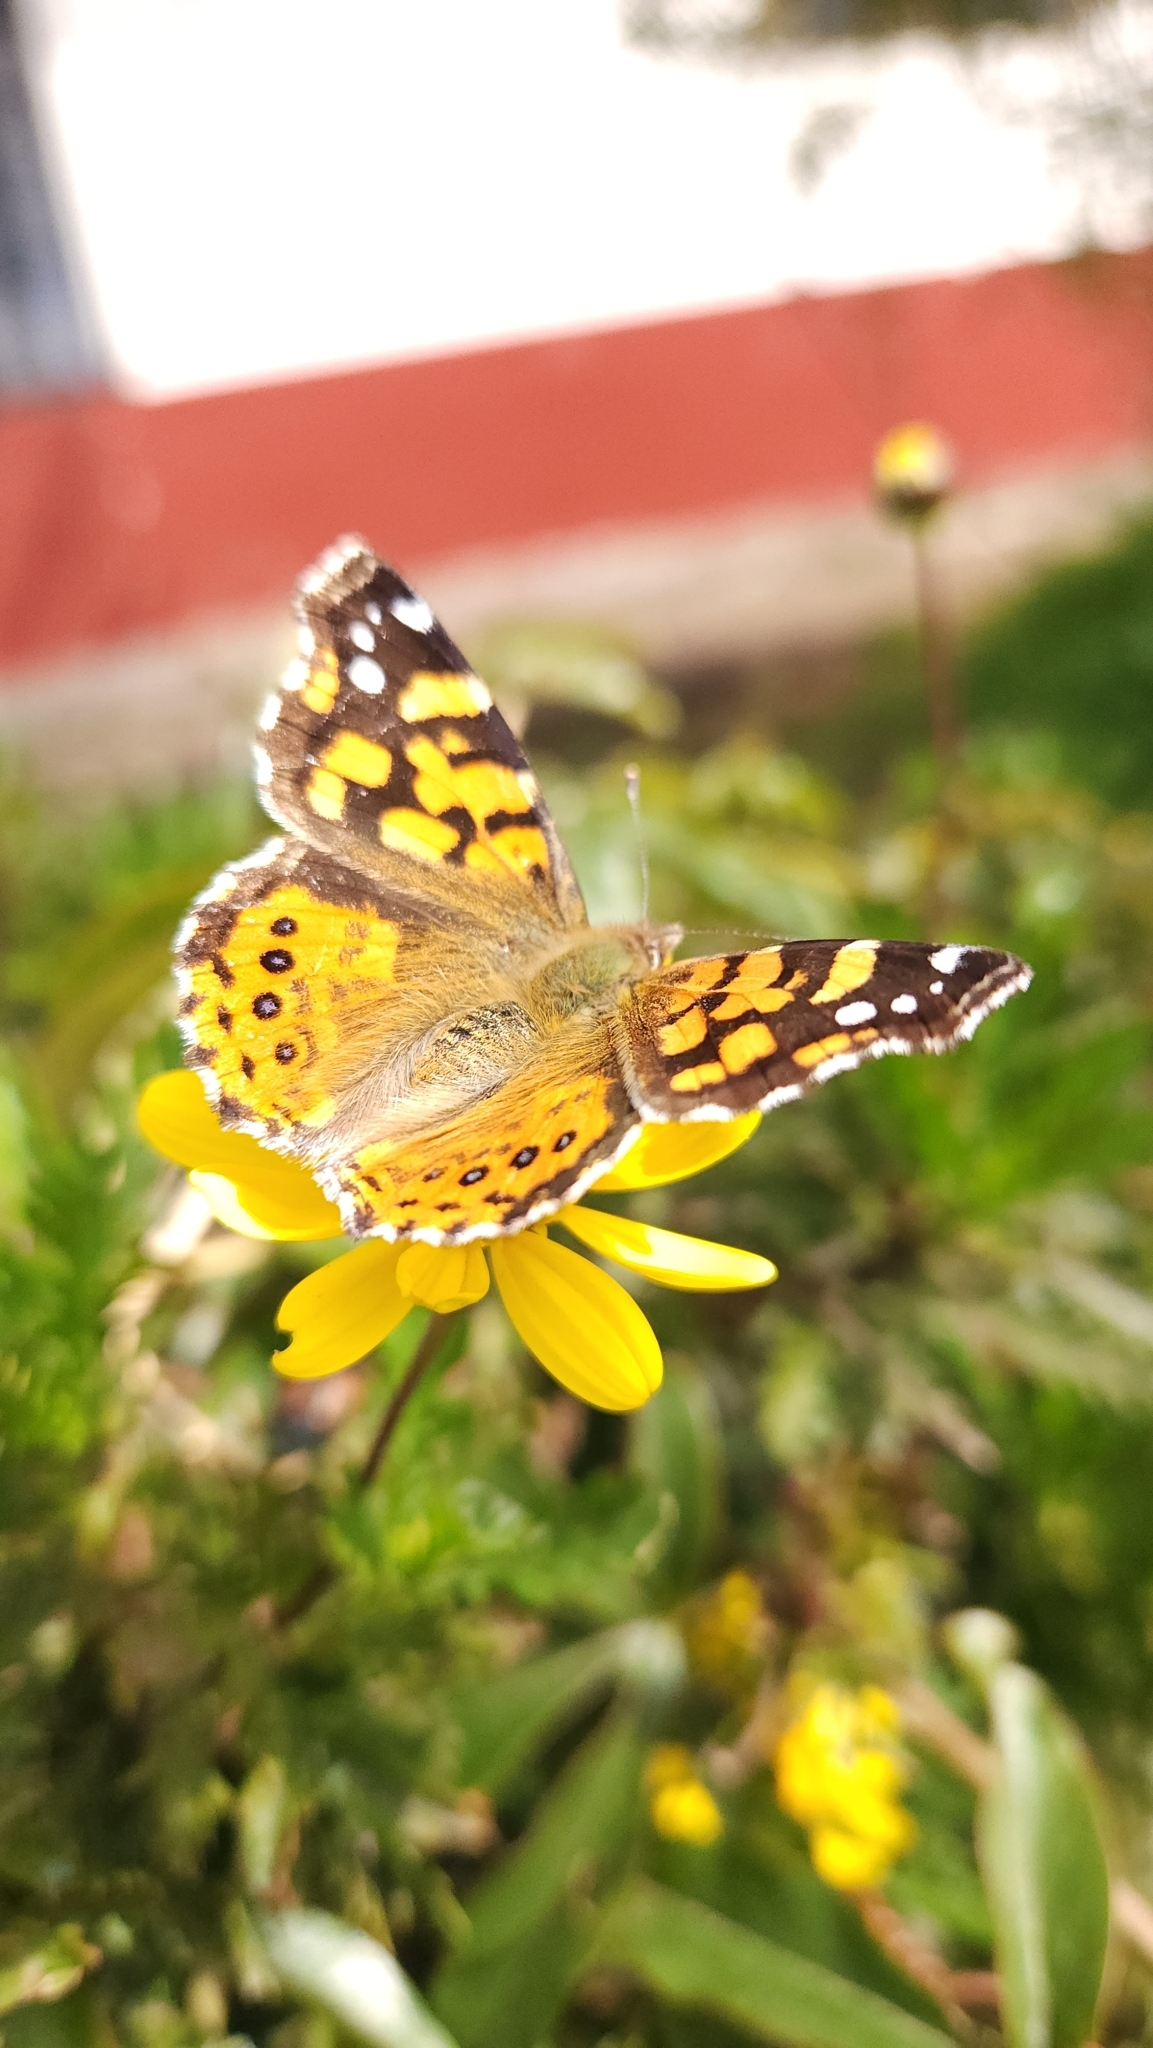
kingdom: Animalia
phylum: Arthropoda
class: Insecta
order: Lepidoptera
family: Nymphalidae
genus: Vanessa
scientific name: Vanessa carye
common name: Subtropical lady
